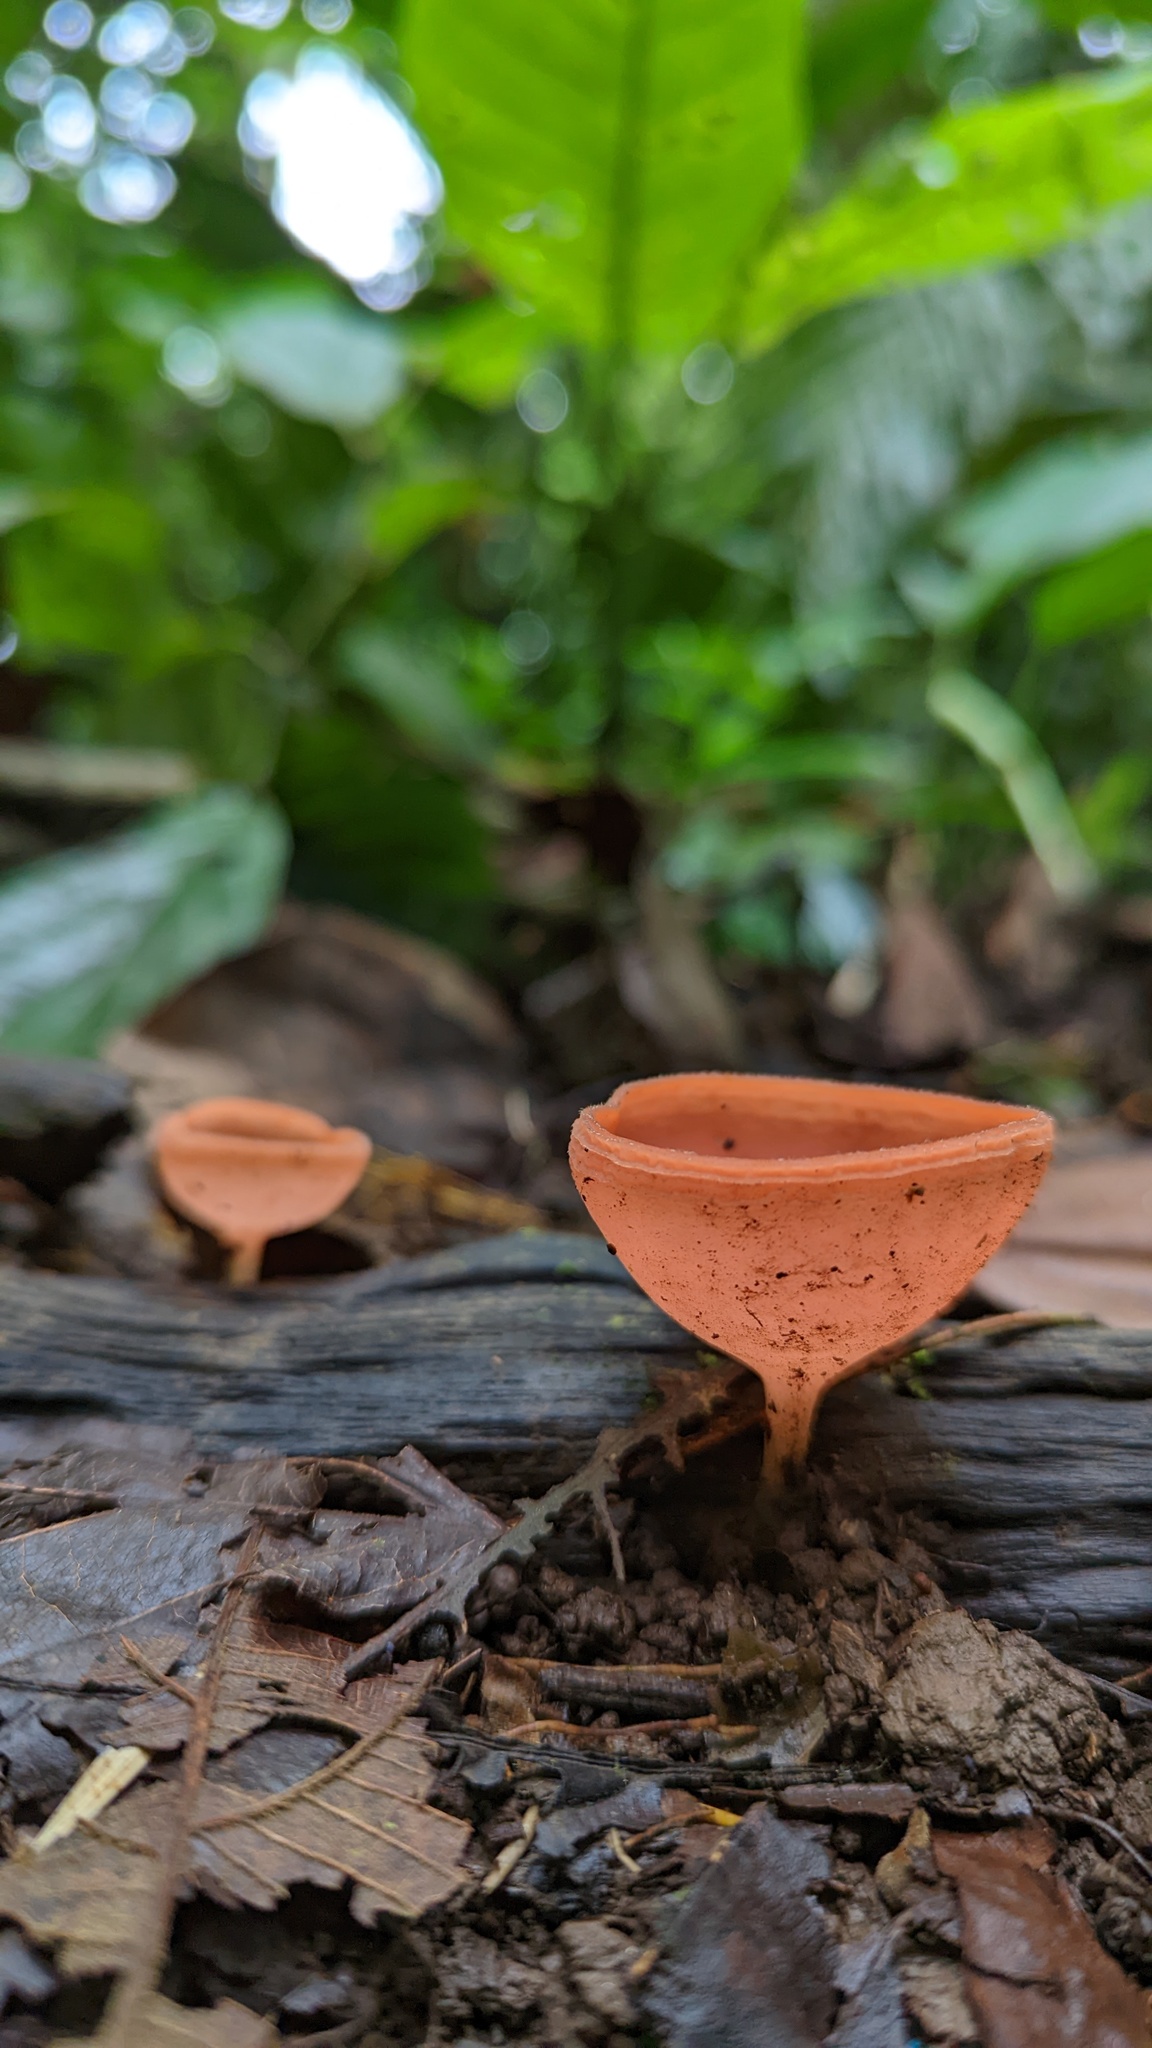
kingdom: Fungi
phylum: Ascomycota
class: Pezizomycetes
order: Pezizales
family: Sarcoscyphaceae
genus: Cookeina
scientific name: Cookeina speciosa
